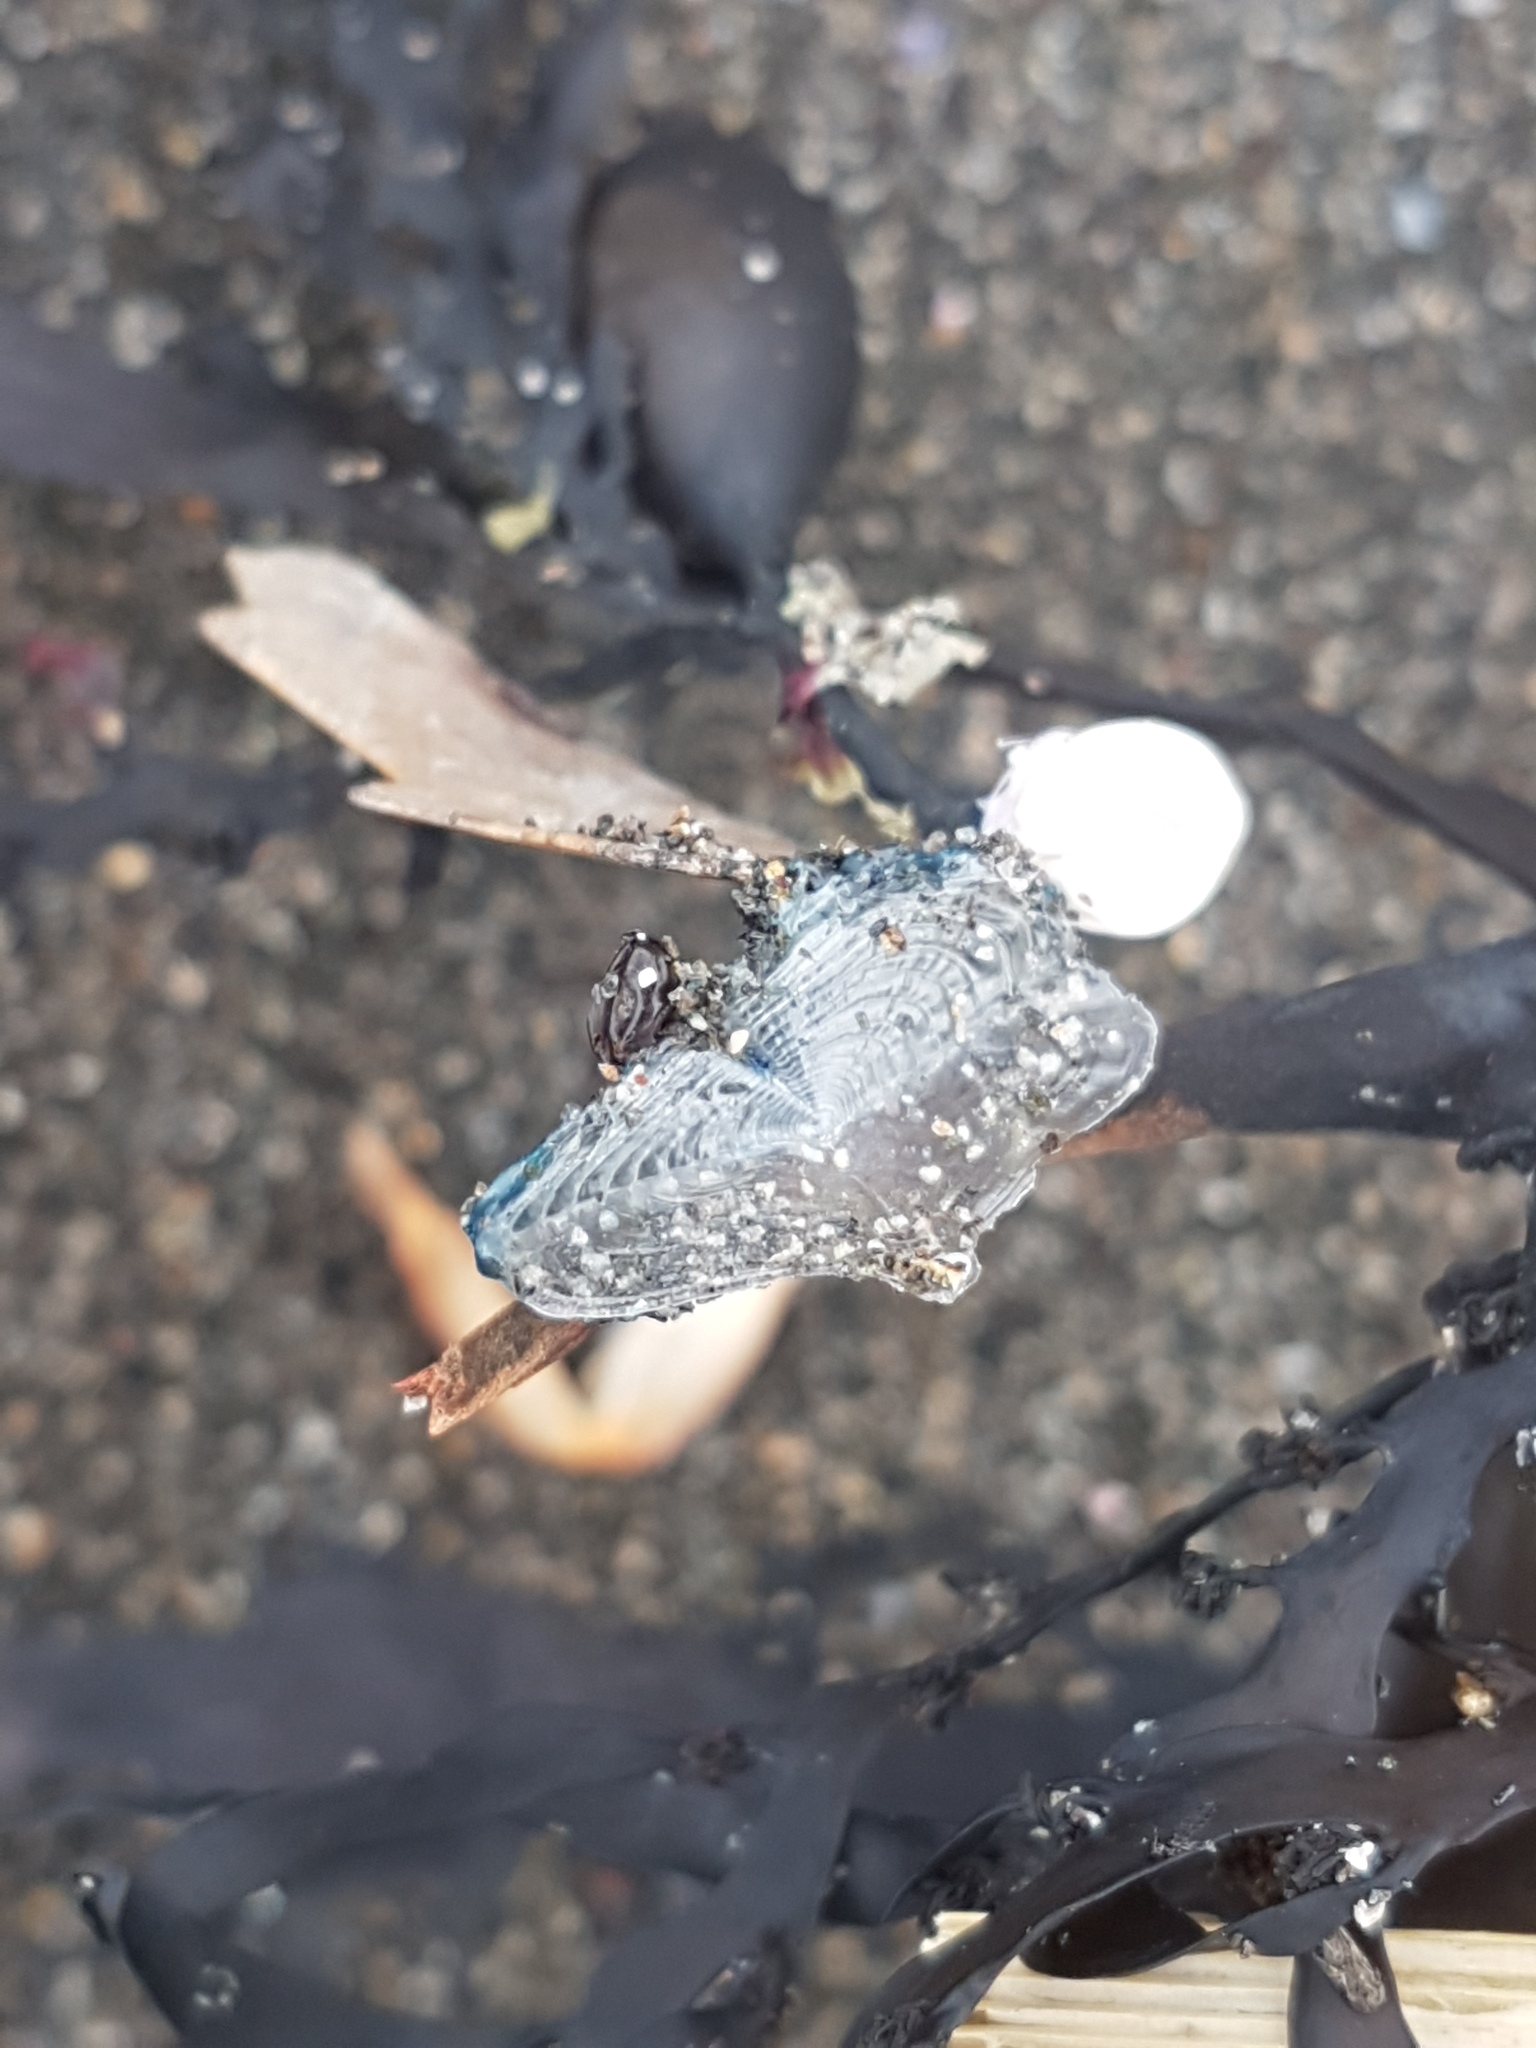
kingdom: Animalia
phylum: Cnidaria
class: Hydrozoa
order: Anthoathecata
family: Porpitidae
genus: Velella
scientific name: Velella velella
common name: By-the-wind-sailor
